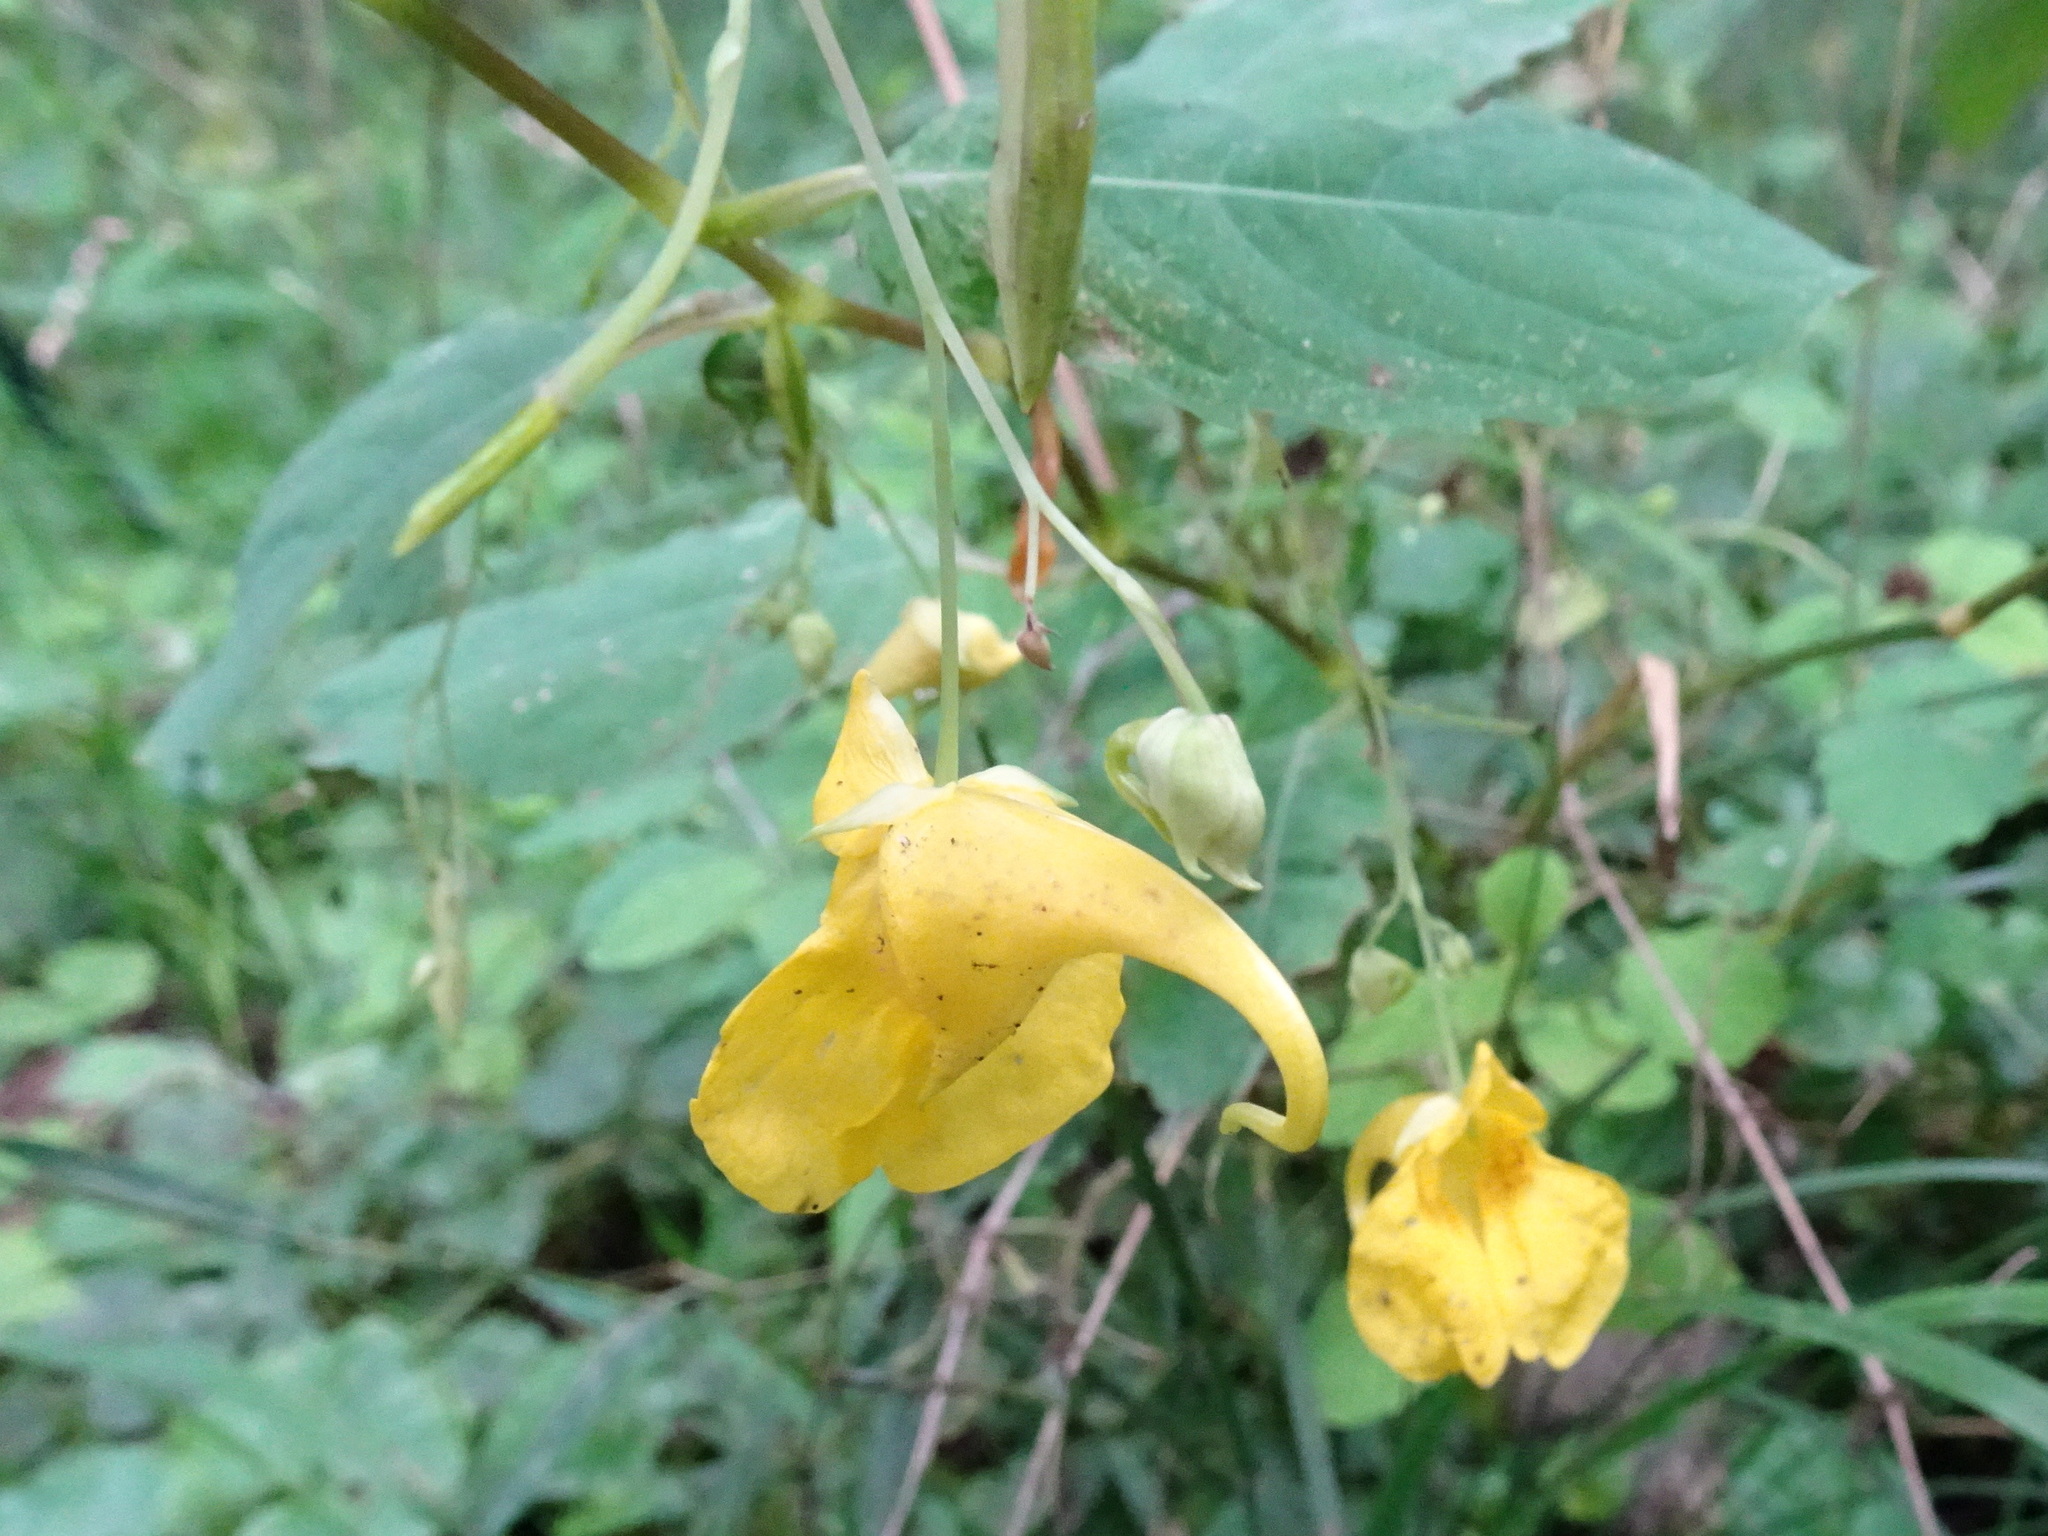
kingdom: Plantae
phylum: Tracheophyta
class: Magnoliopsida
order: Ericales
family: Balsaminaceae
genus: Impatiens
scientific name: Impatiens noli-tangere
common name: Touch-me-not balsam
